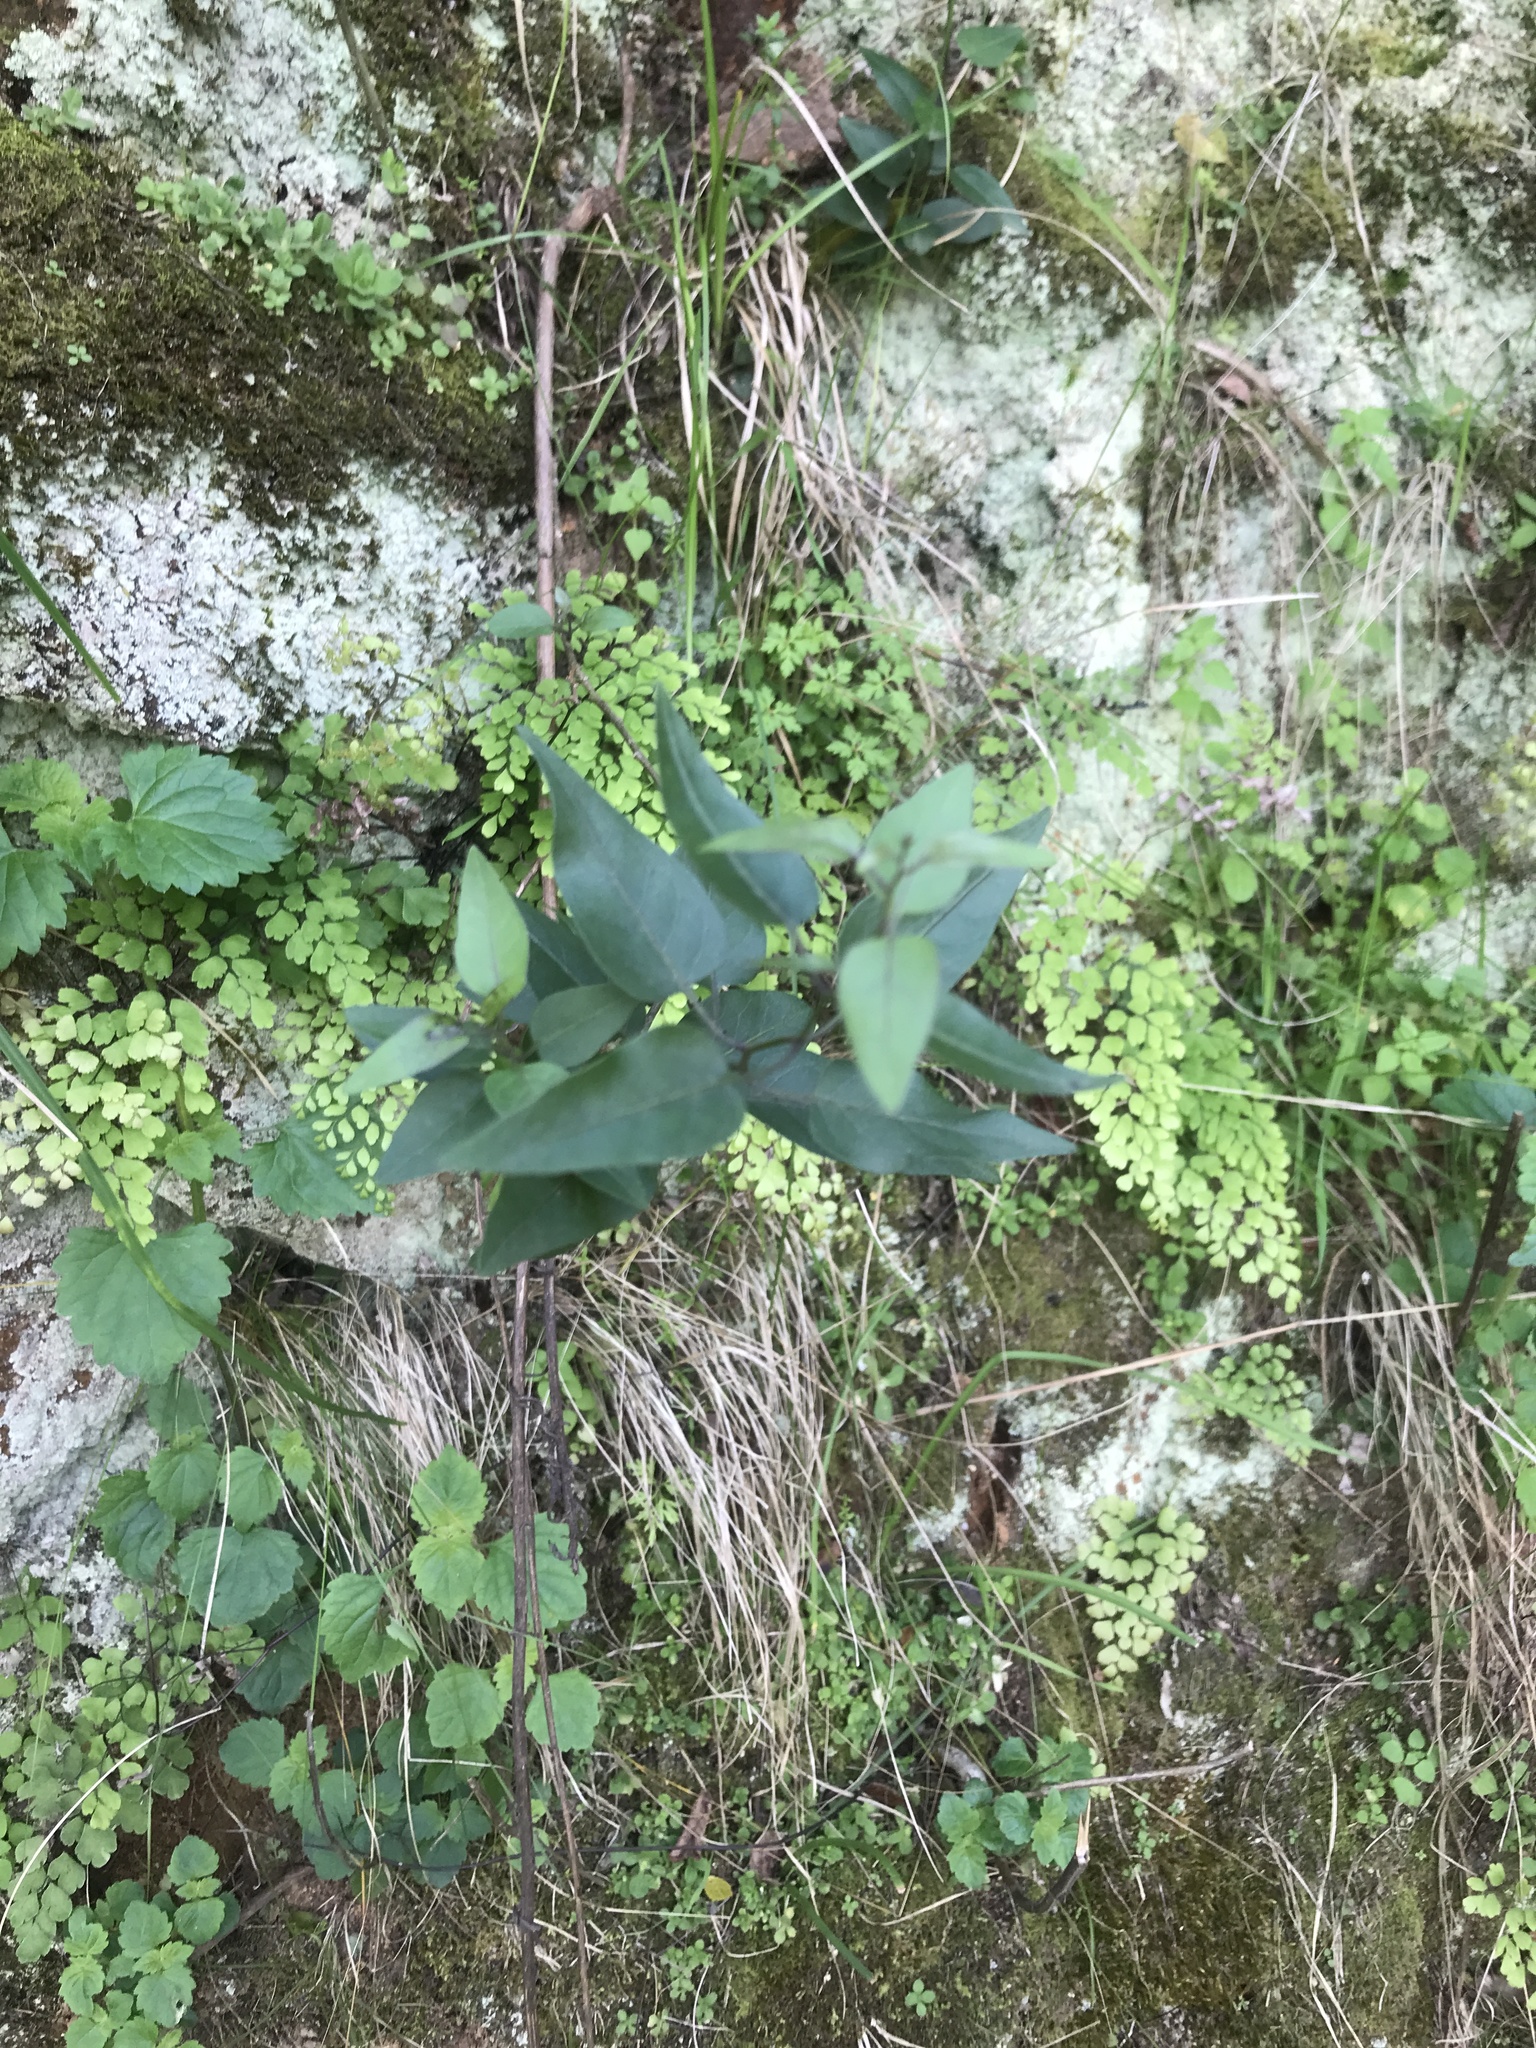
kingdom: Plantae
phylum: Tracheophyta
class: Magnoliopsida
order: Solanales
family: Solanaceae
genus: Solanum
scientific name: Solanum laxum
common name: Nightshade
